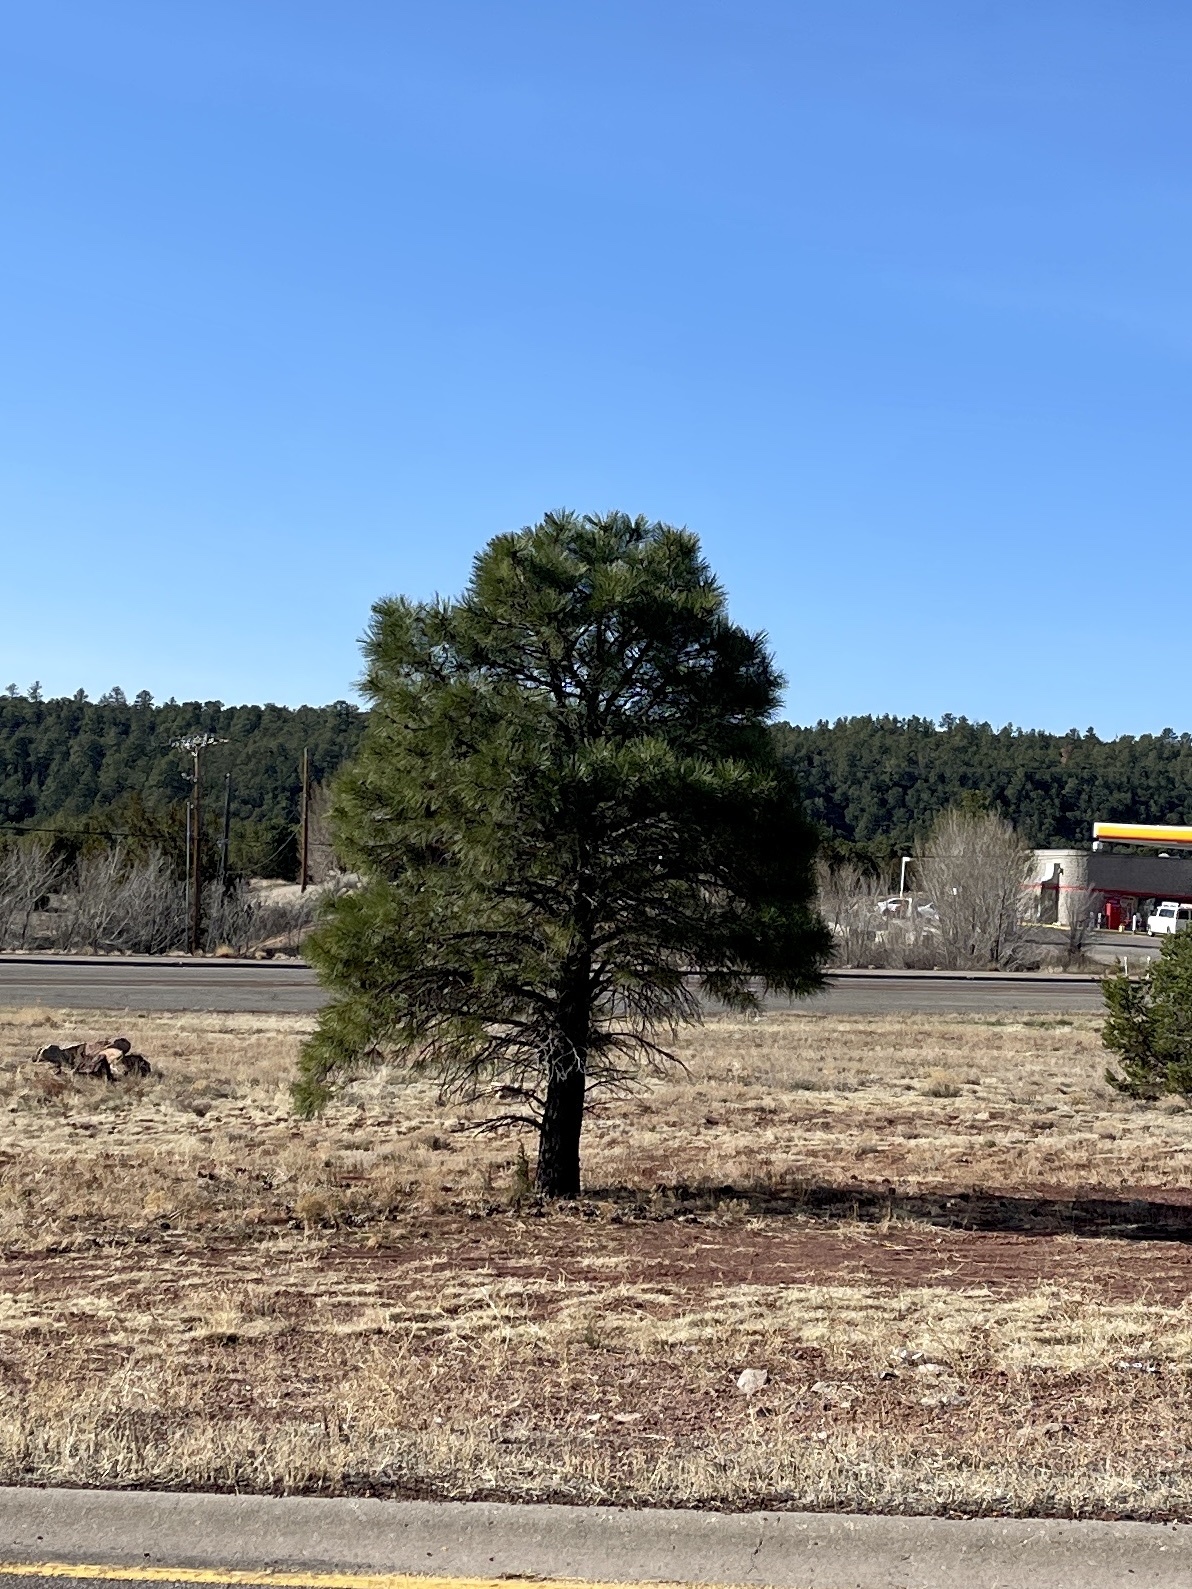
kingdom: Plantae
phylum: Tracheophyta
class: Pinopsida
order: Pinales
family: Pinaceae
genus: Pinus
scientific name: Pinus ponderosa
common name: Western yellow-pine
